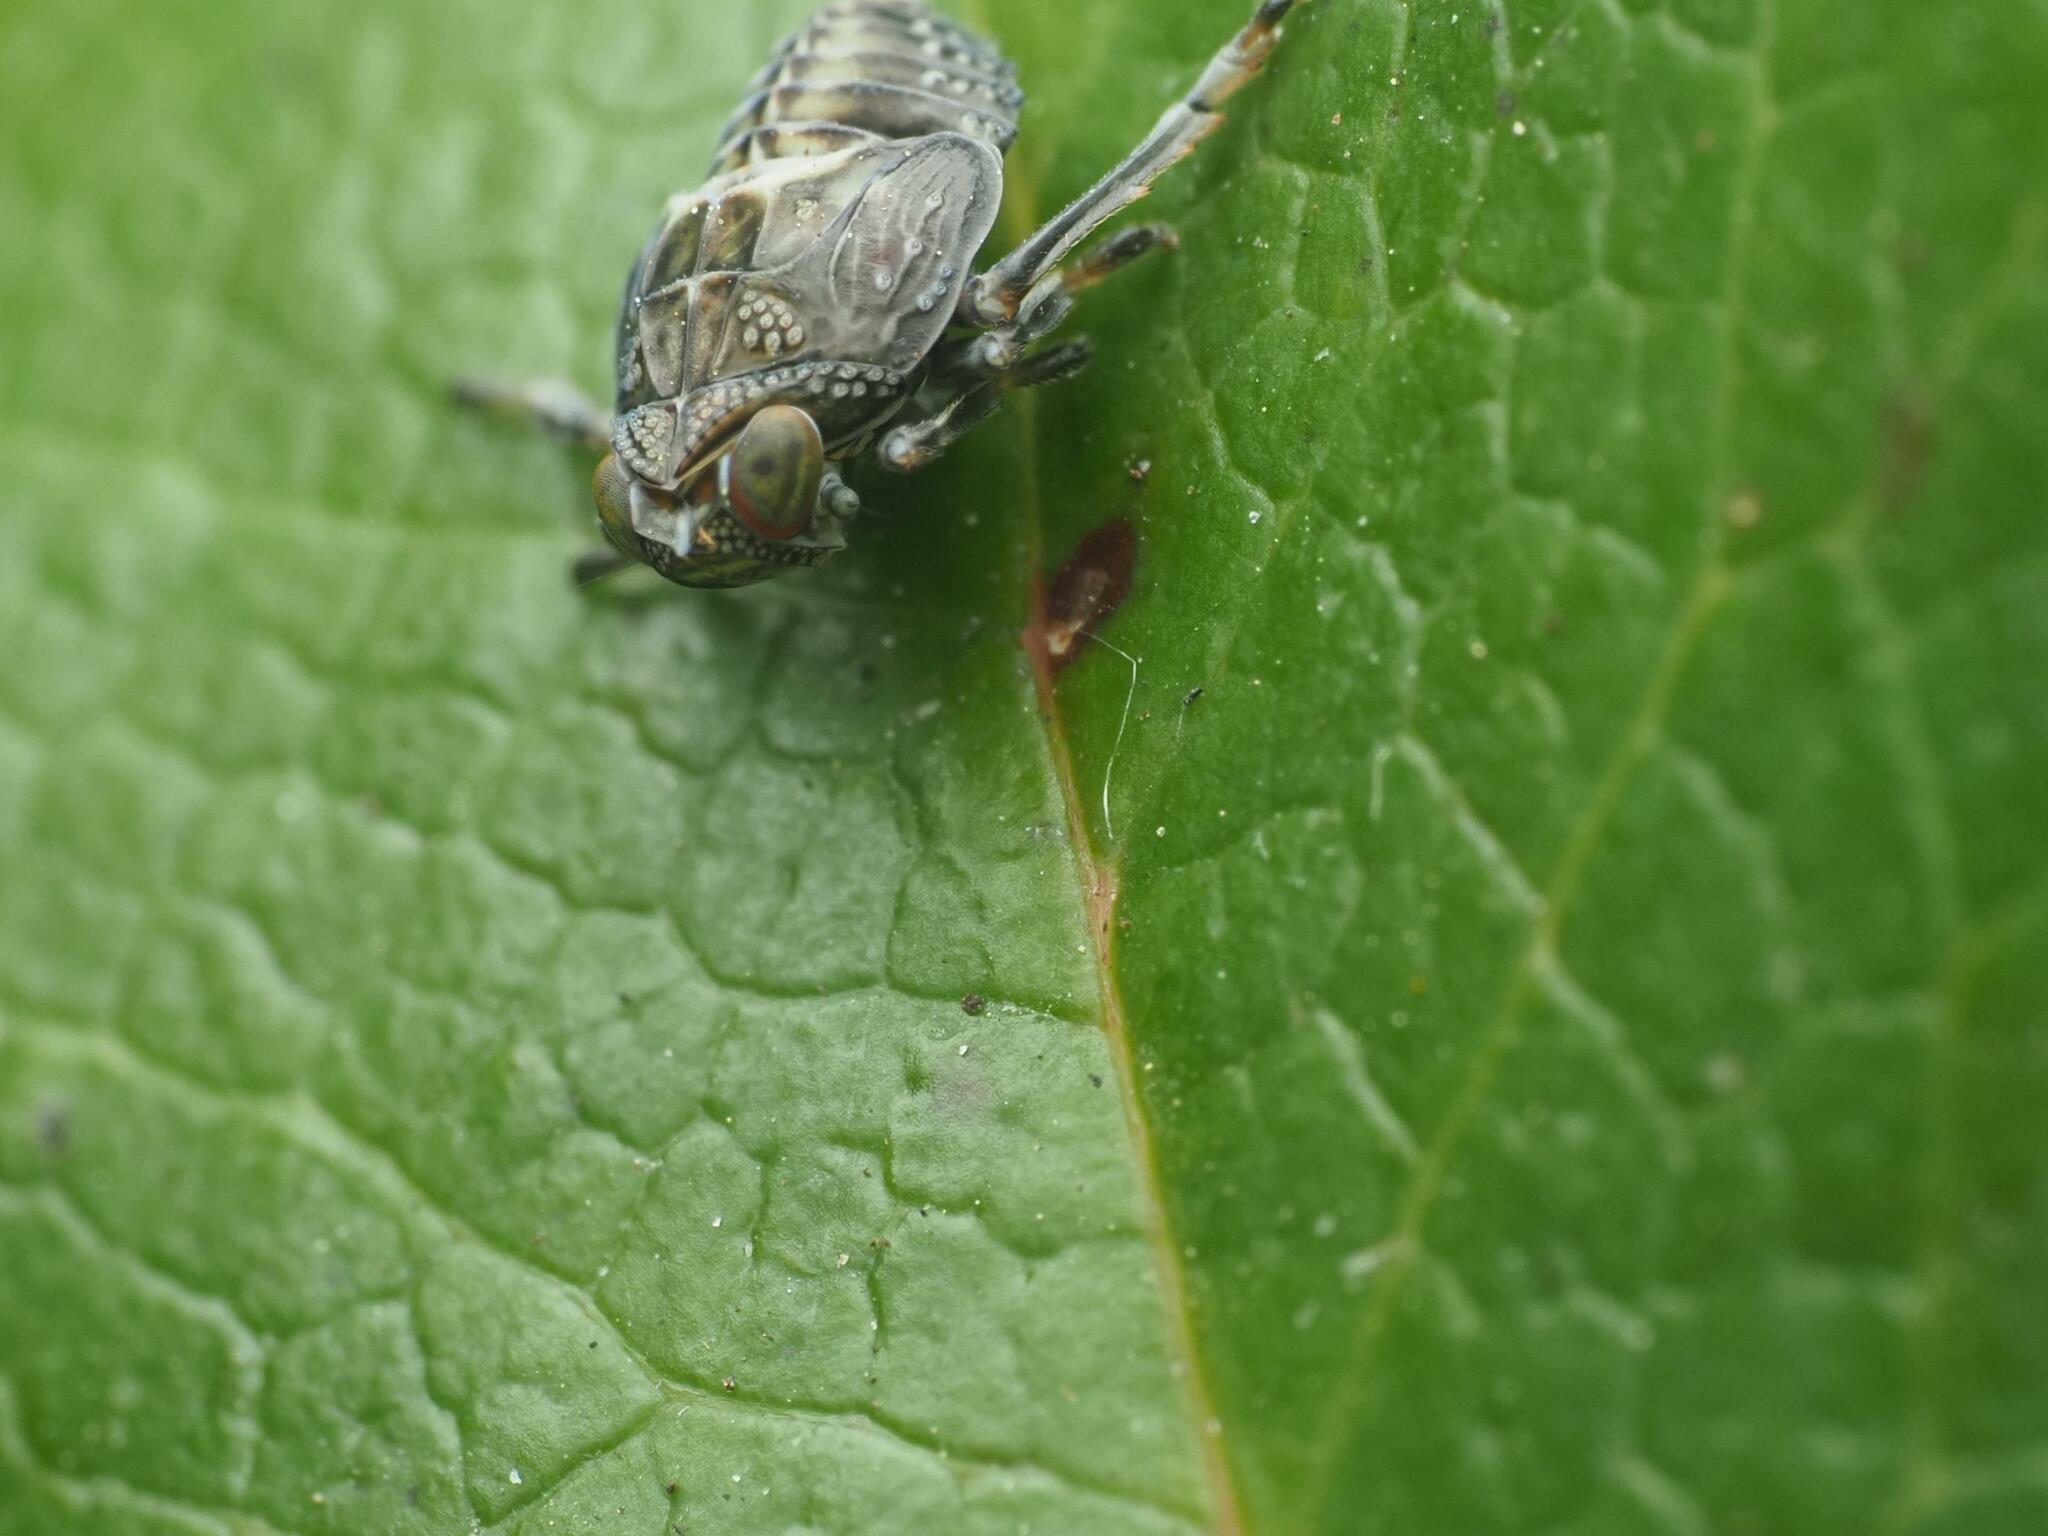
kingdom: Animalia
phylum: Arthropoda
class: Insecta
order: Hemiptera
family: Issidae
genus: Issus
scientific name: Issus coleoptratus
